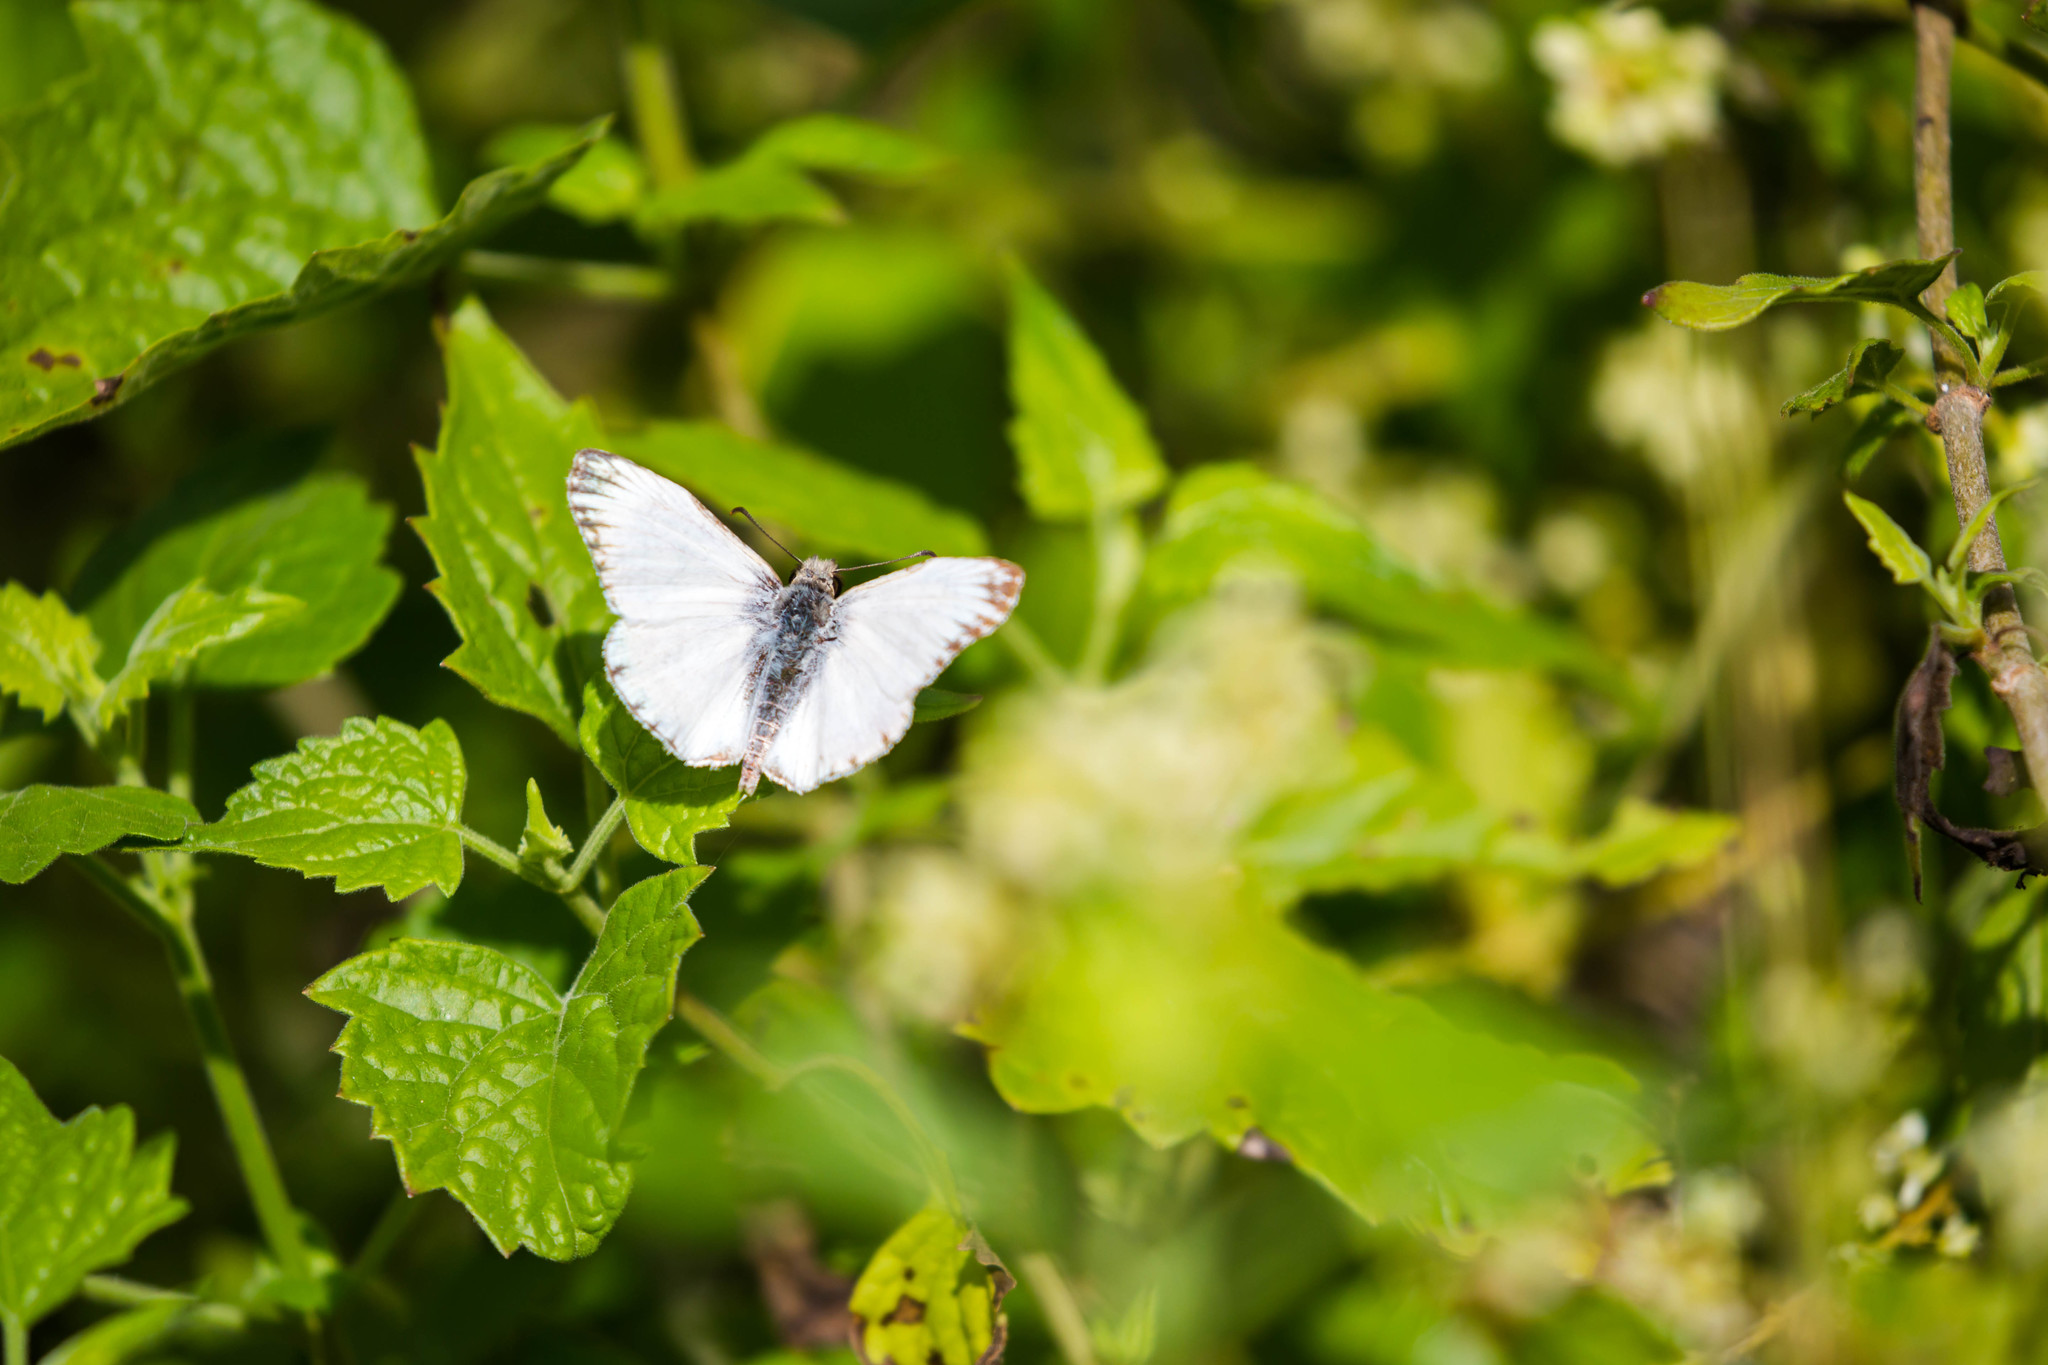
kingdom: Animalia
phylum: Arthropoda
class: Insecta
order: Lepidoptera
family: Hesperiidae
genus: Heliopetes
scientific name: Heliopetes macaira
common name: Turk's-cap white-skipper
